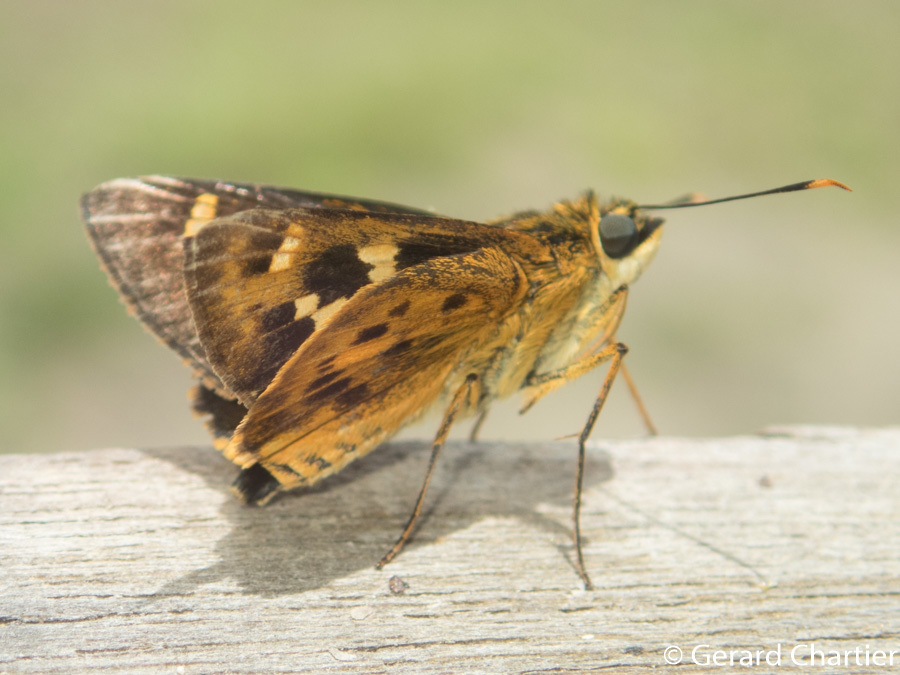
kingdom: Animalia
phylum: Arthropoda
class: Insecta
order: Lepidoptera
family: Hesperiidae
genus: Thoressa
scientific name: Thoressa masoni
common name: Golden ace
